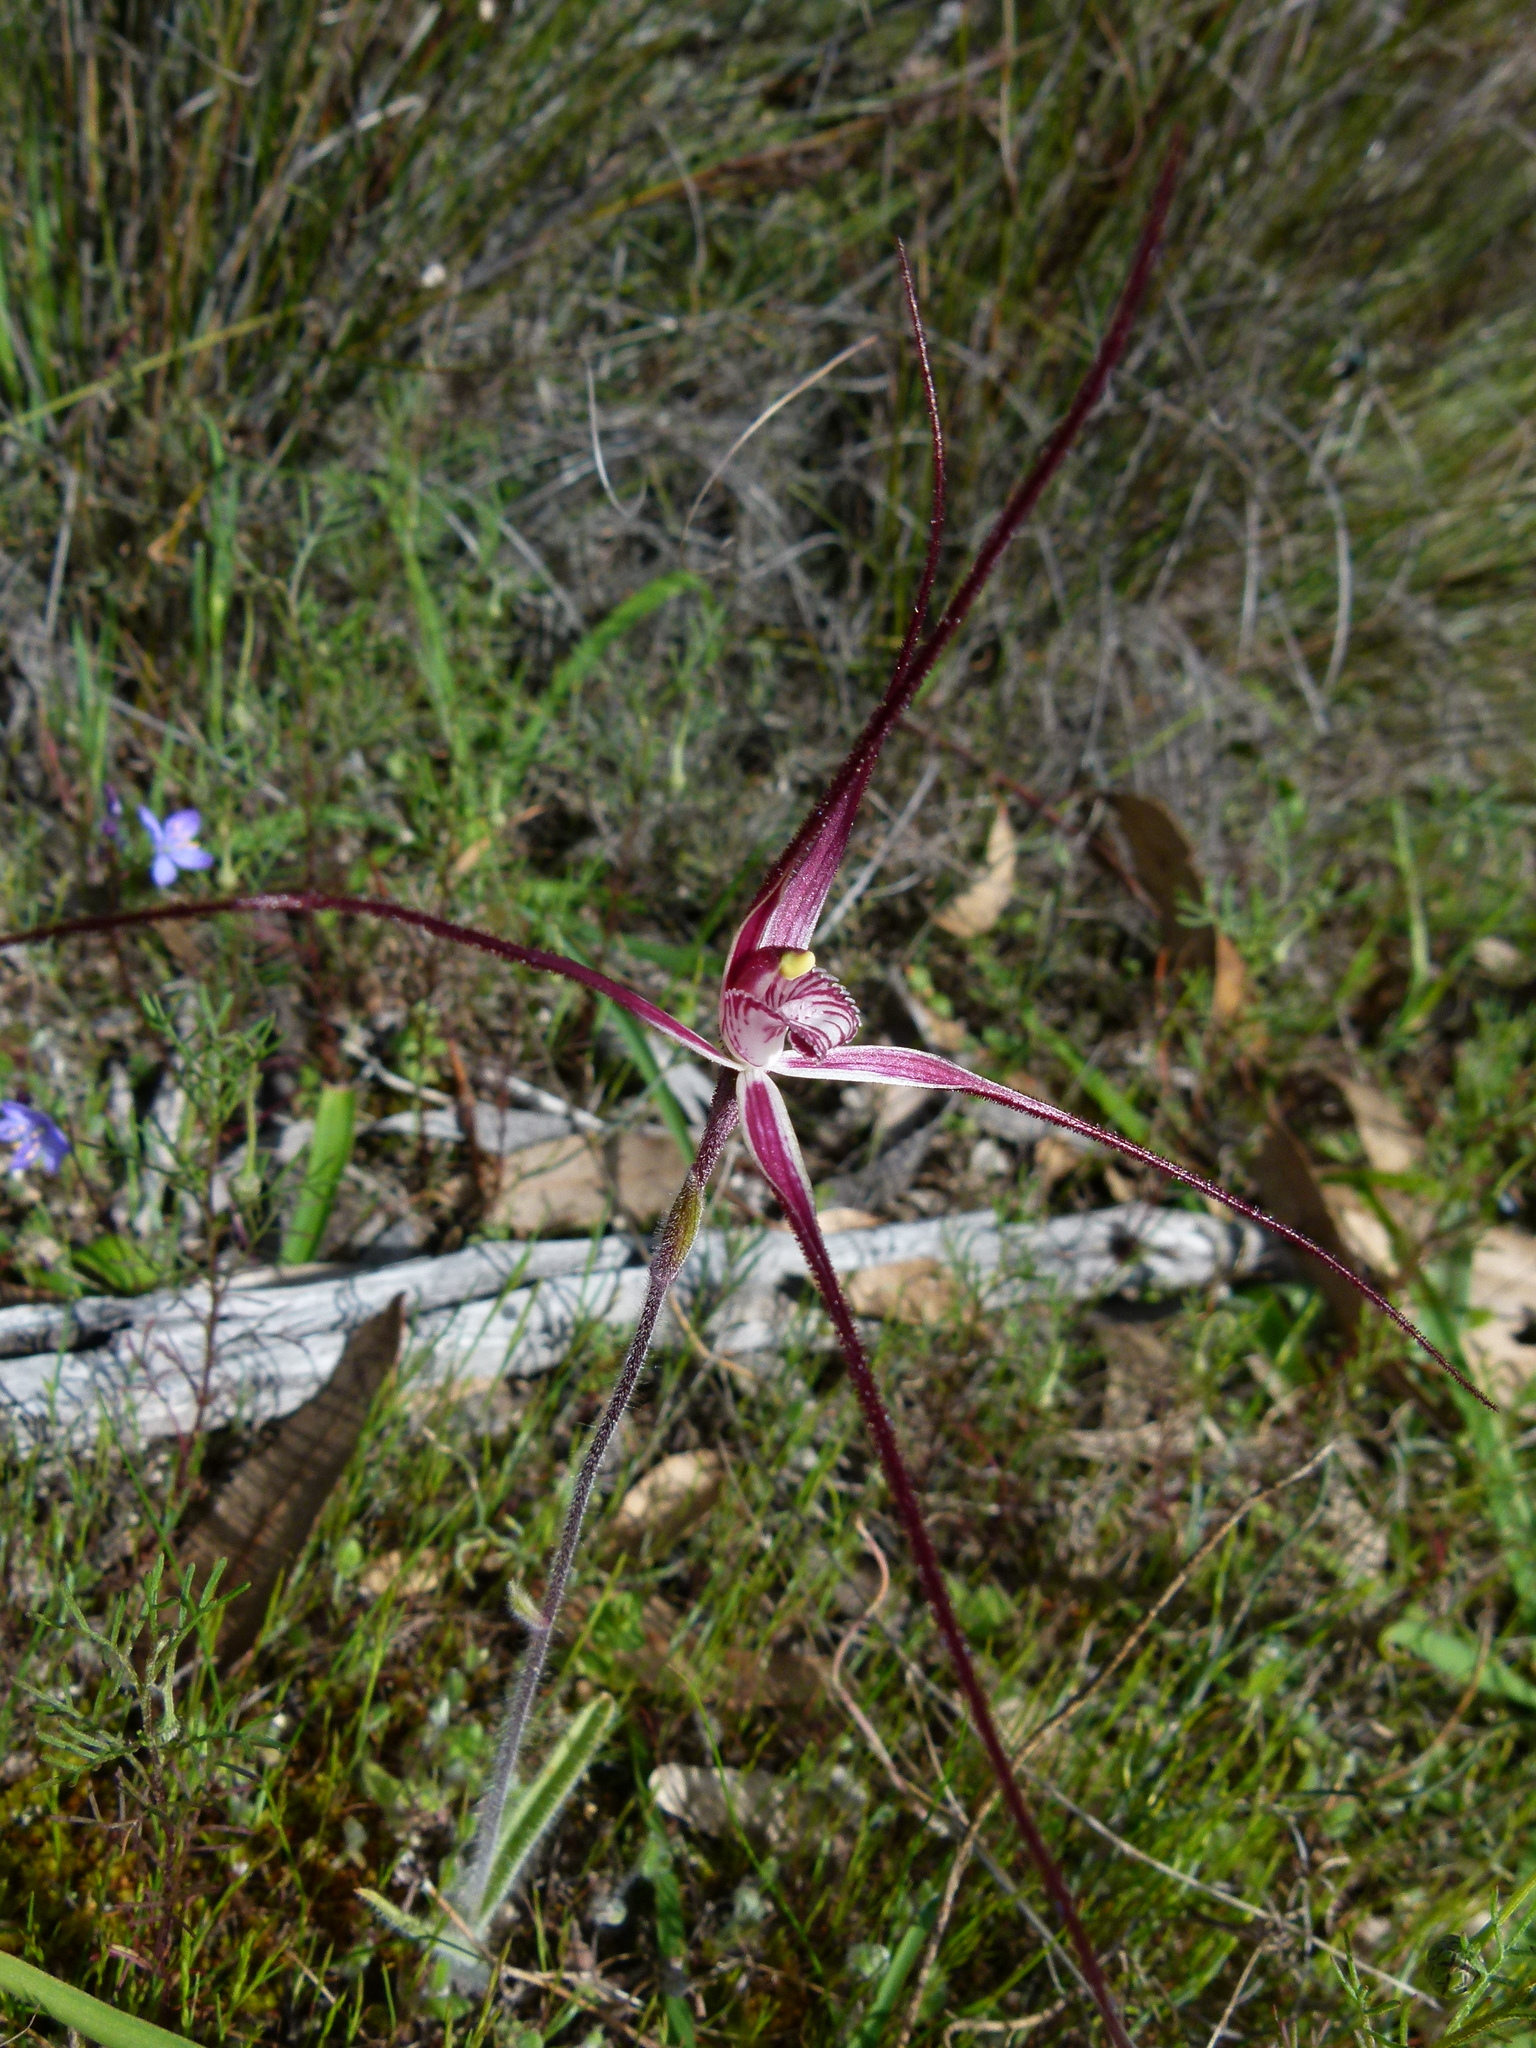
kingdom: Plantae
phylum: Tracheophyta
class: Liliopsida
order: Asparagales
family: Orchidaceae
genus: Caladenia
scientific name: Caladenia erythronema
